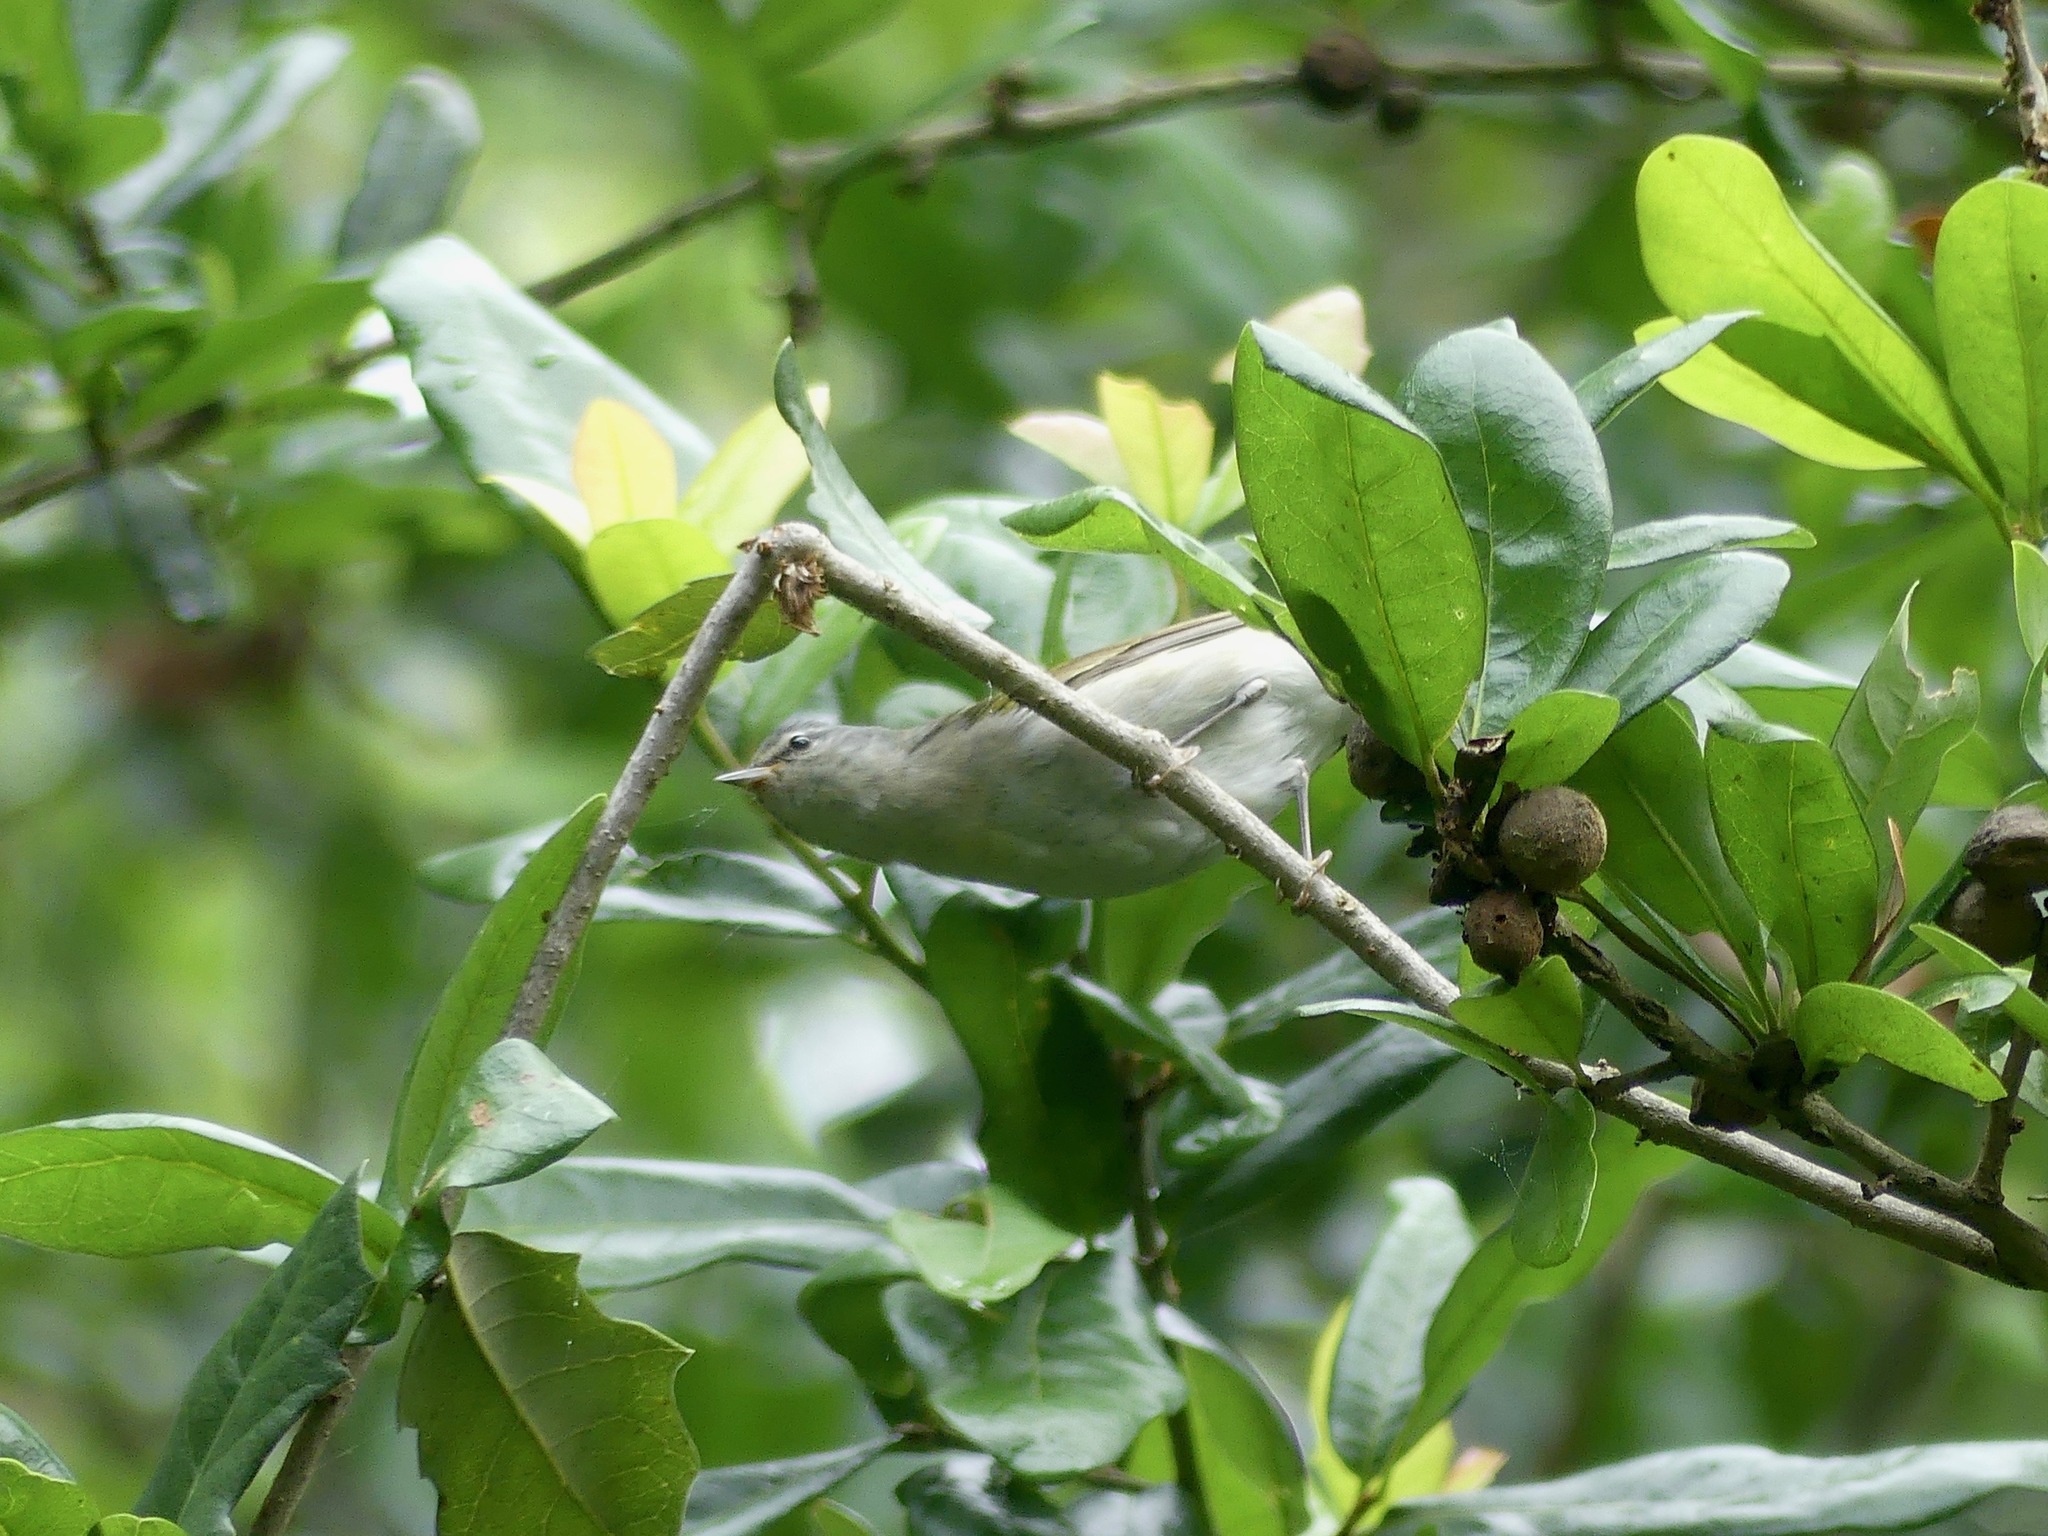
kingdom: Animalia
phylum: Chordata
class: Aves
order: Passeriformes
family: Parulidae
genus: Leiothlypis
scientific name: Leiothlypis peregrina
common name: Tennessee warbler
